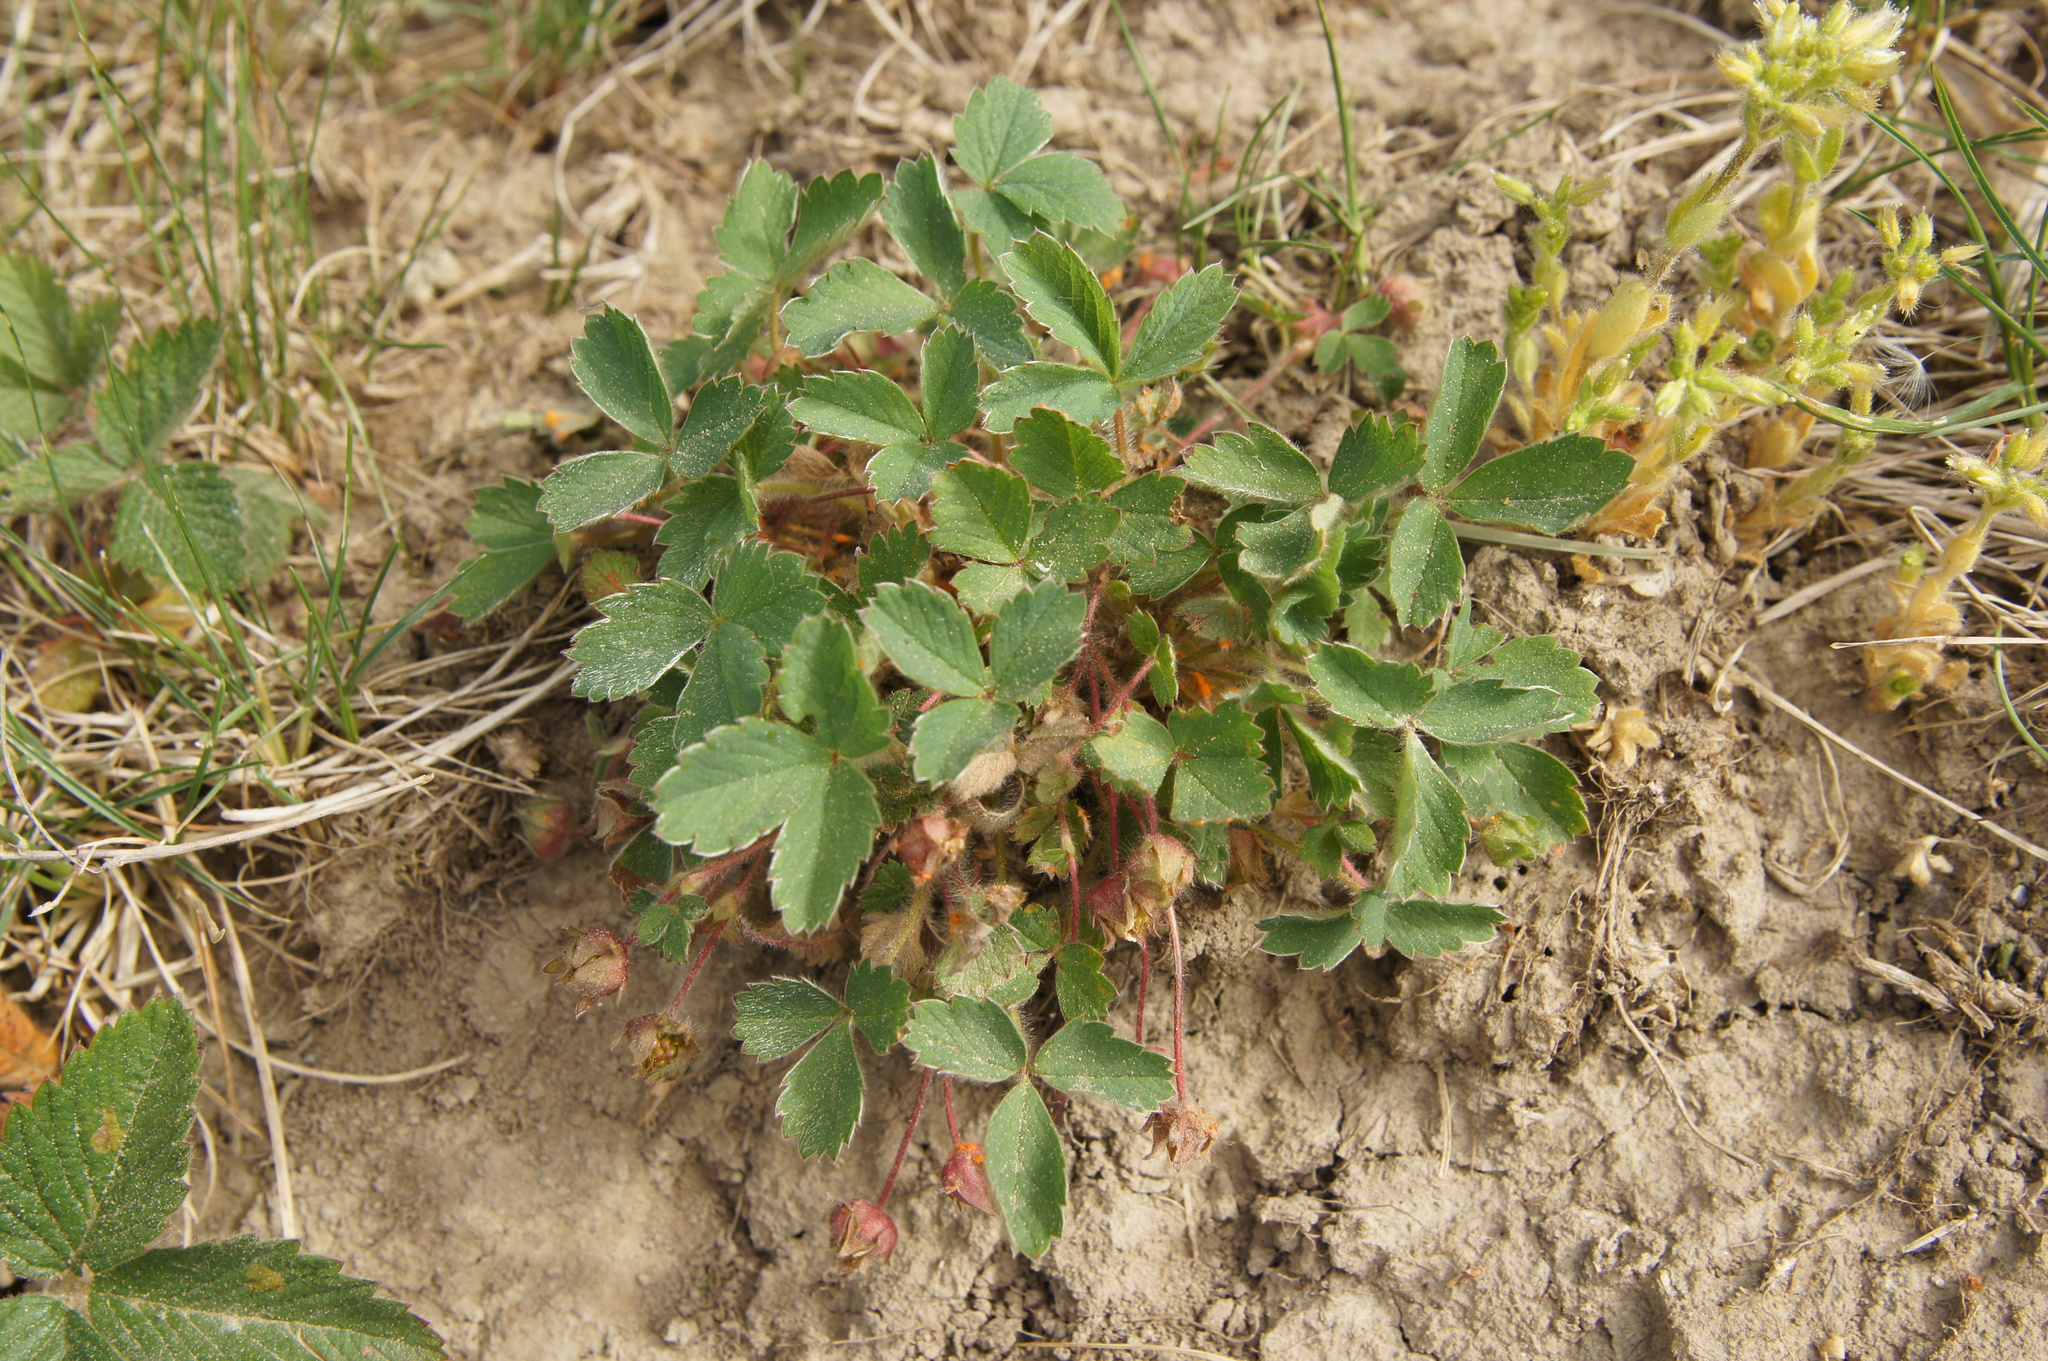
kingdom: Plantae
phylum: Tracheophyta
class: Magnoliopsida
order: Rosales
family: Rosaceae
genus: Potentilla
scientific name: Potentilla sterilis
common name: Barren strawberry
